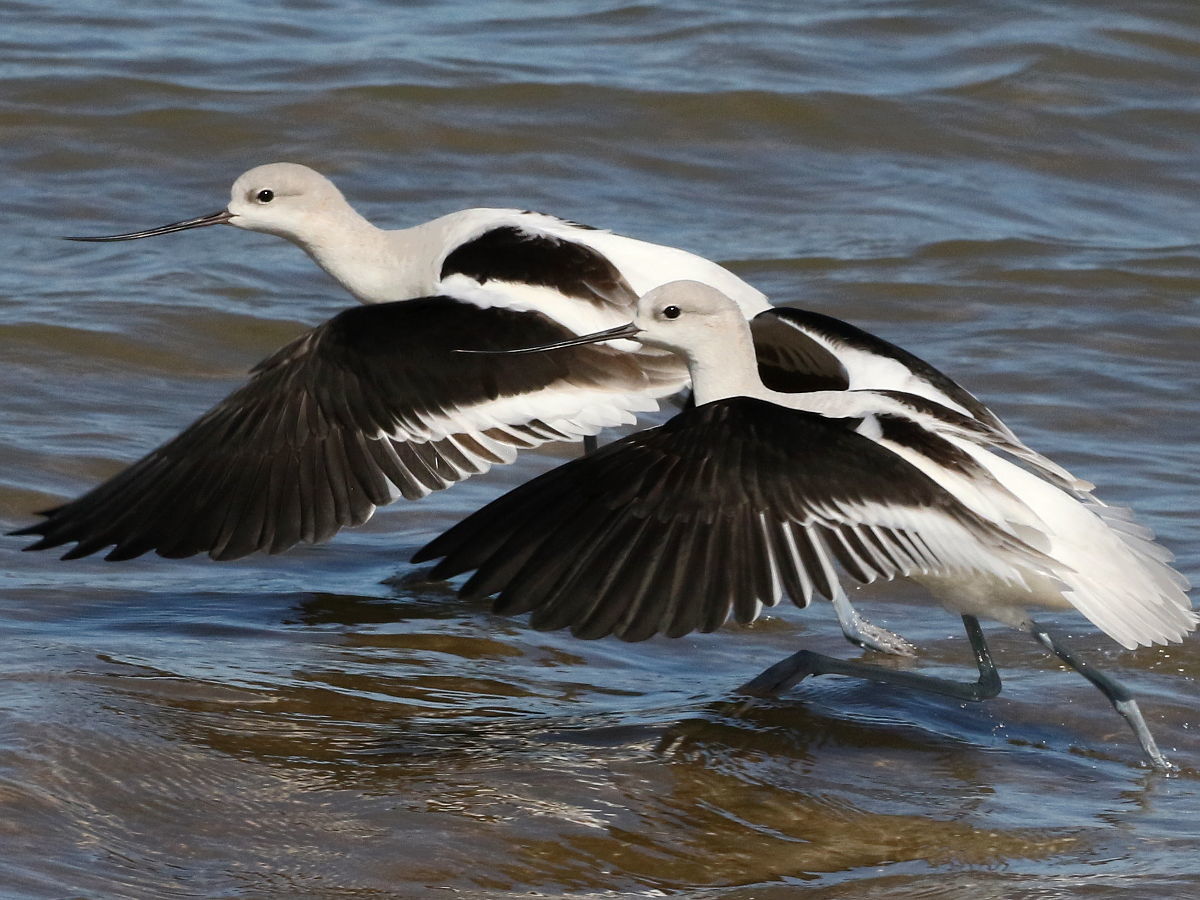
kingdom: Animalia
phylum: Chordata
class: Aves
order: Charadriiformes
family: Recurvirostridae
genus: Recurvirostra
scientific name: Recurvirostra americana
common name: American avocet
